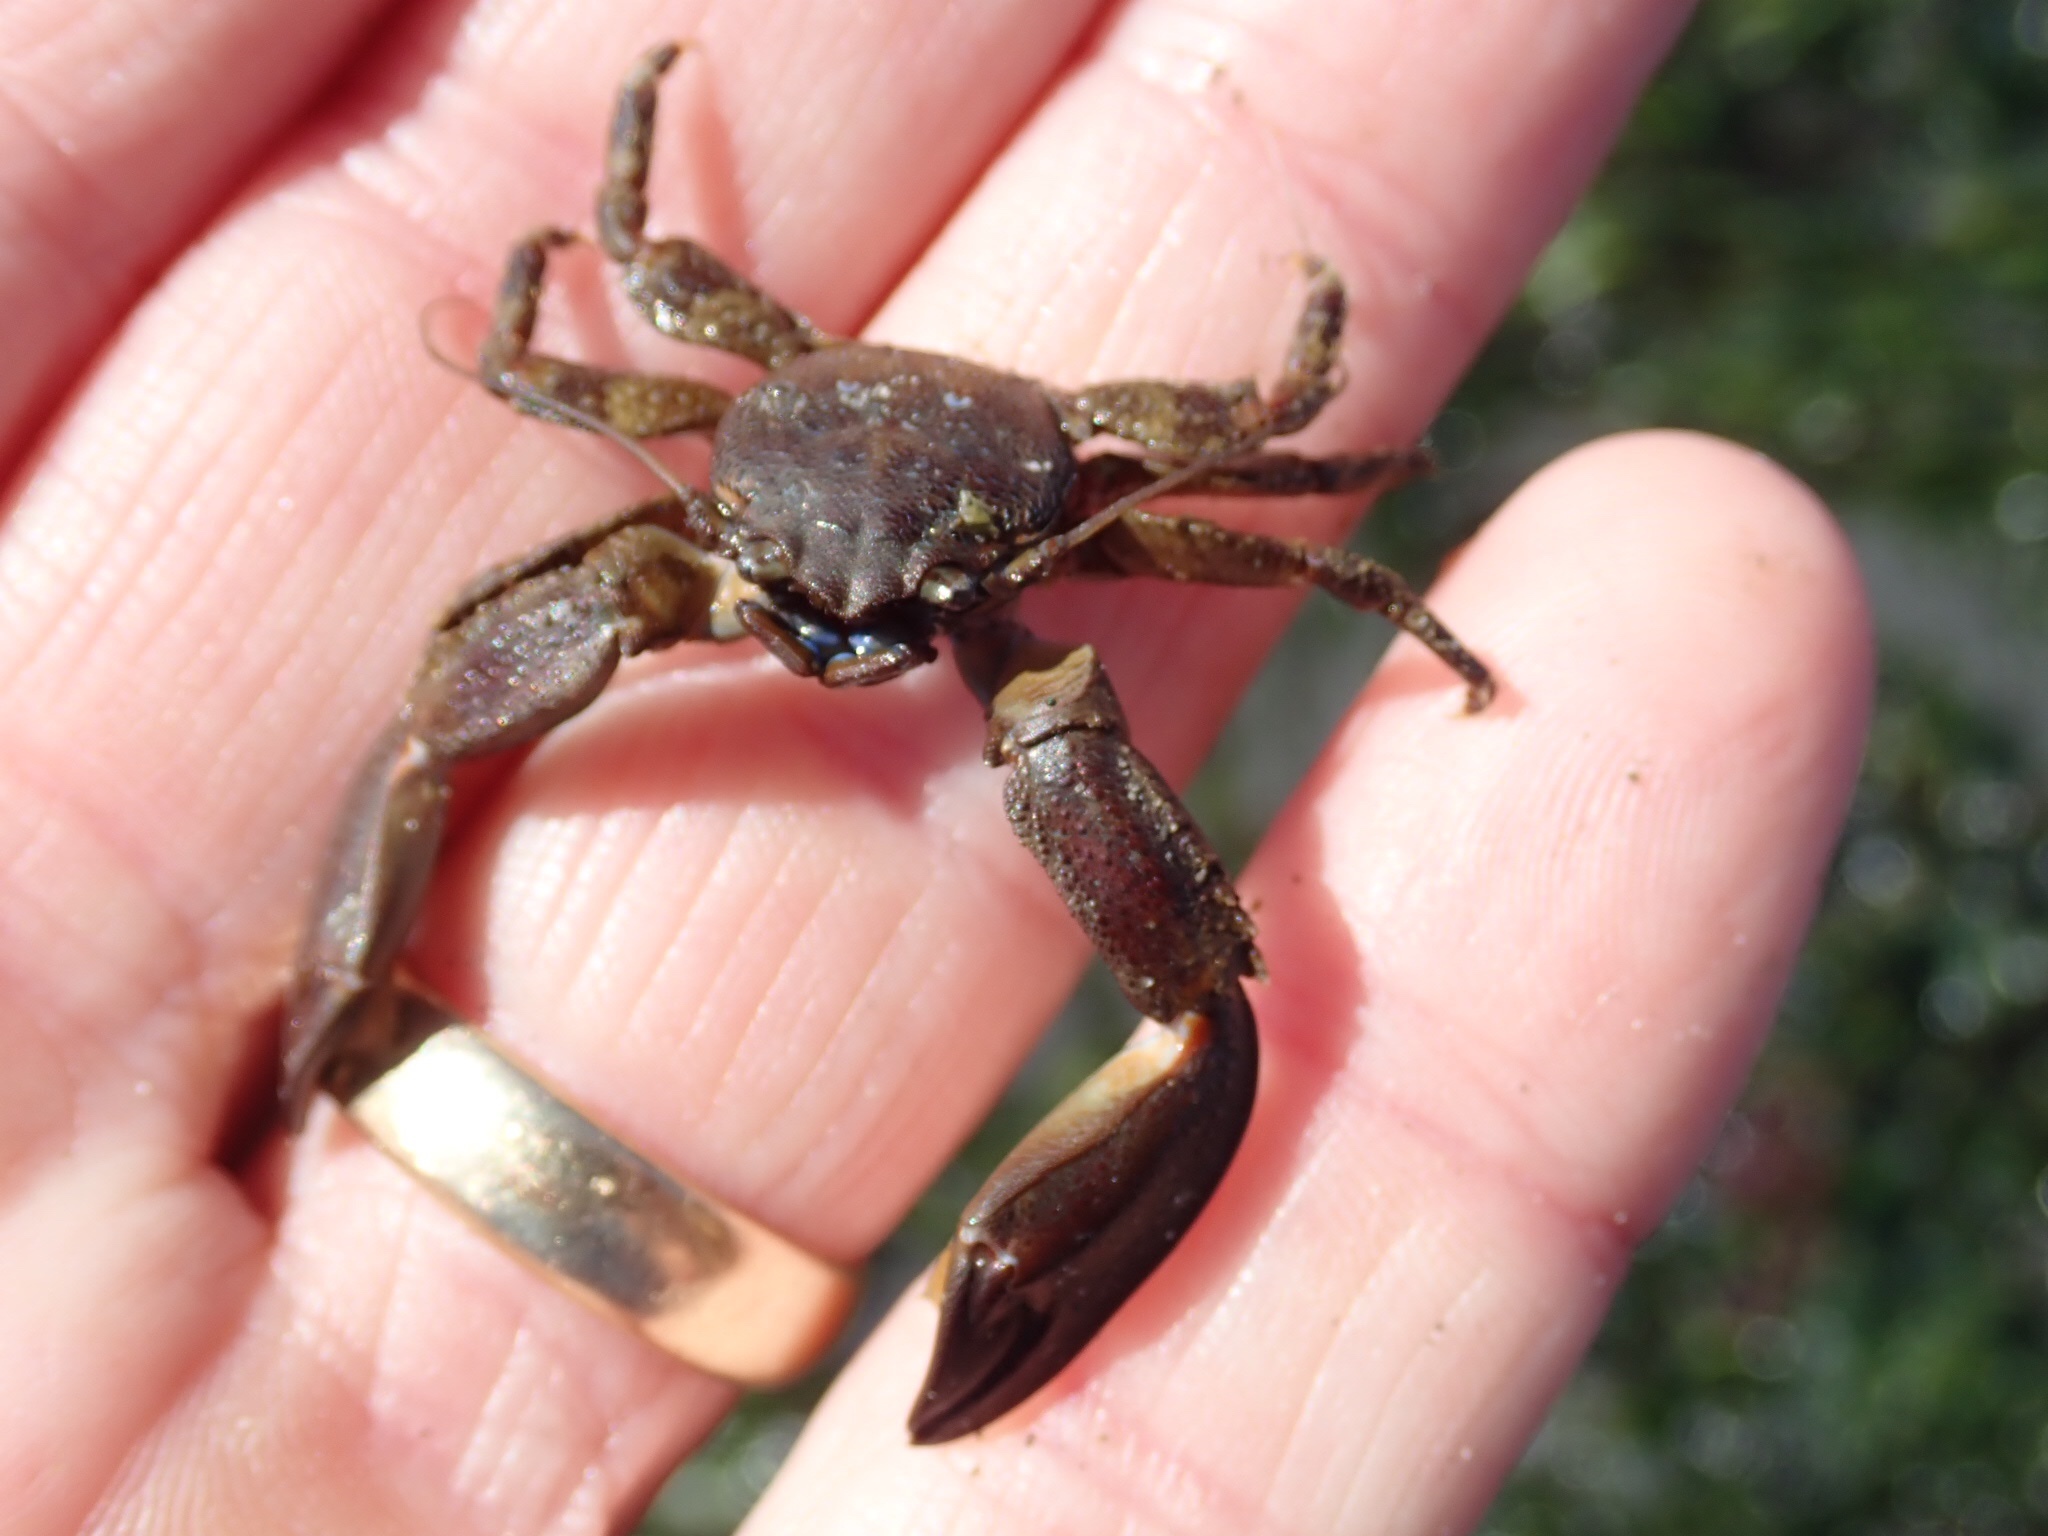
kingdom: Animalia
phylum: Arthropoda
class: Malacostraca
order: Decapoda
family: Porcellanidae
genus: Petrolisthes
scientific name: Petrolisthes eriomerus
